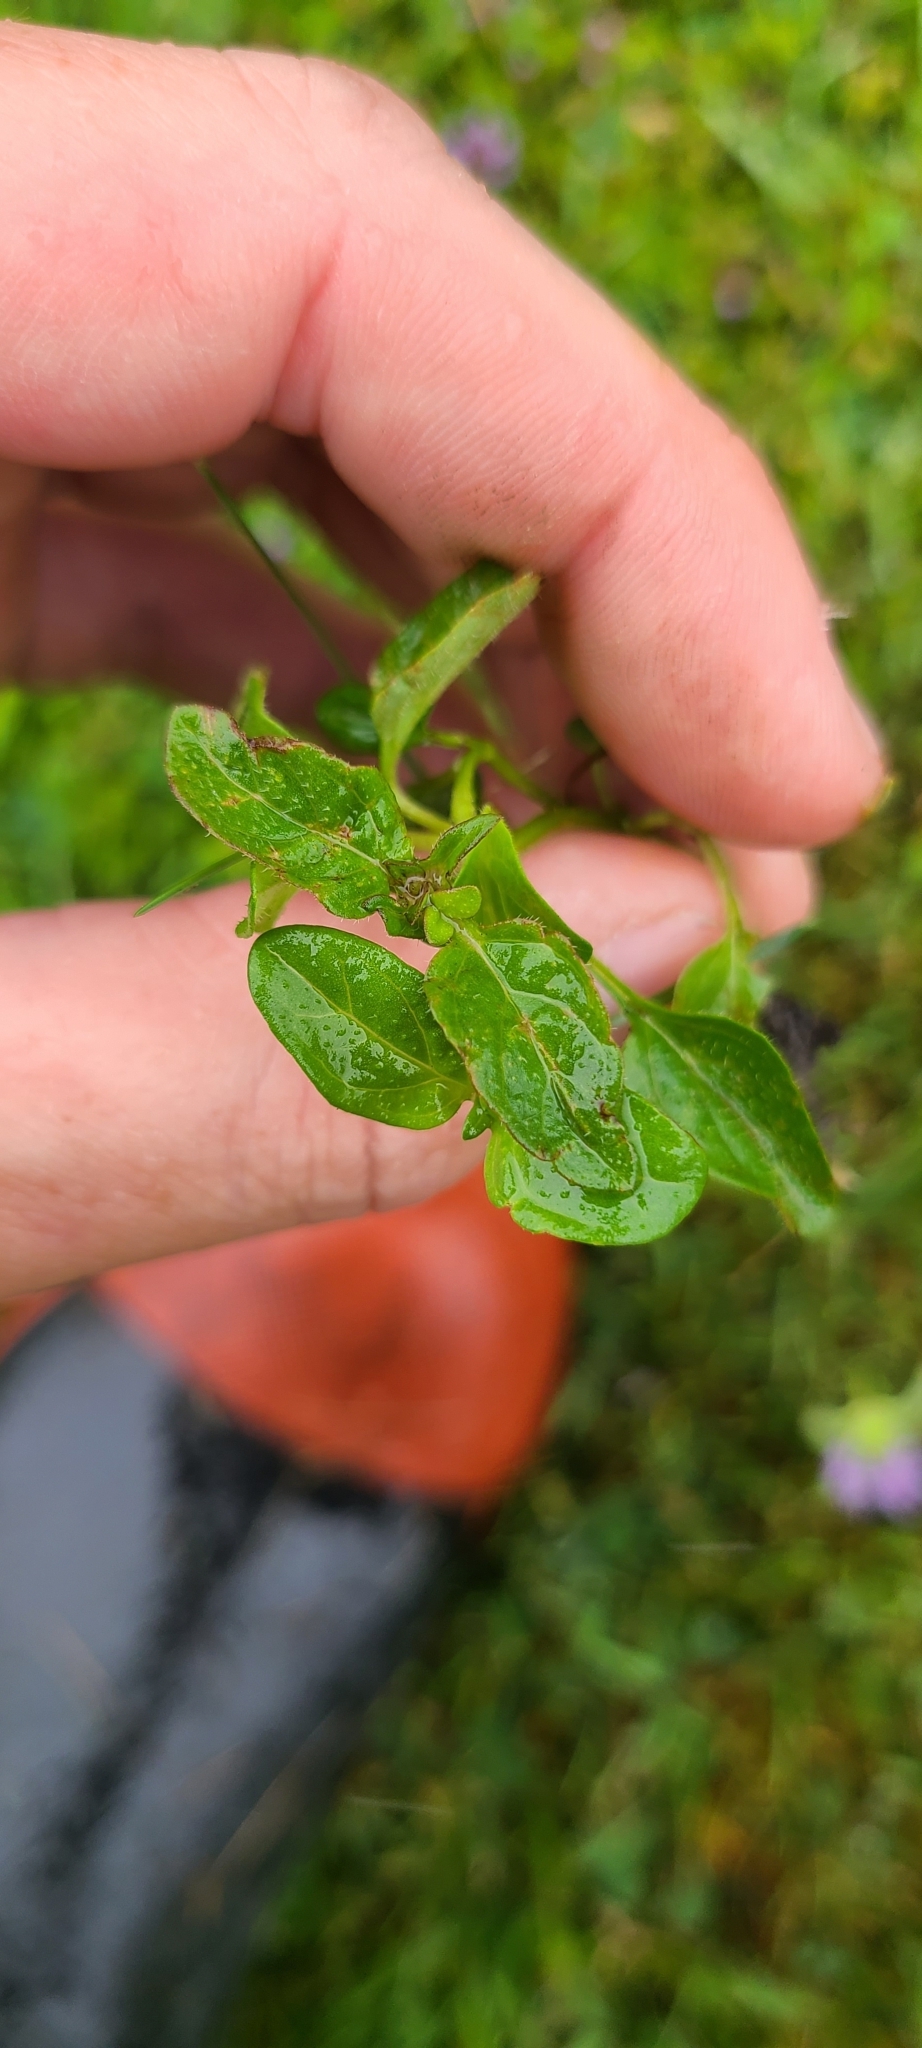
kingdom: Plantae
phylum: Tracheophyta
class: Magnoliopsida
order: Lamiales
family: Lamiaceae
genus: Prunella
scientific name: Prunella vulgaris
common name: Heal-all
